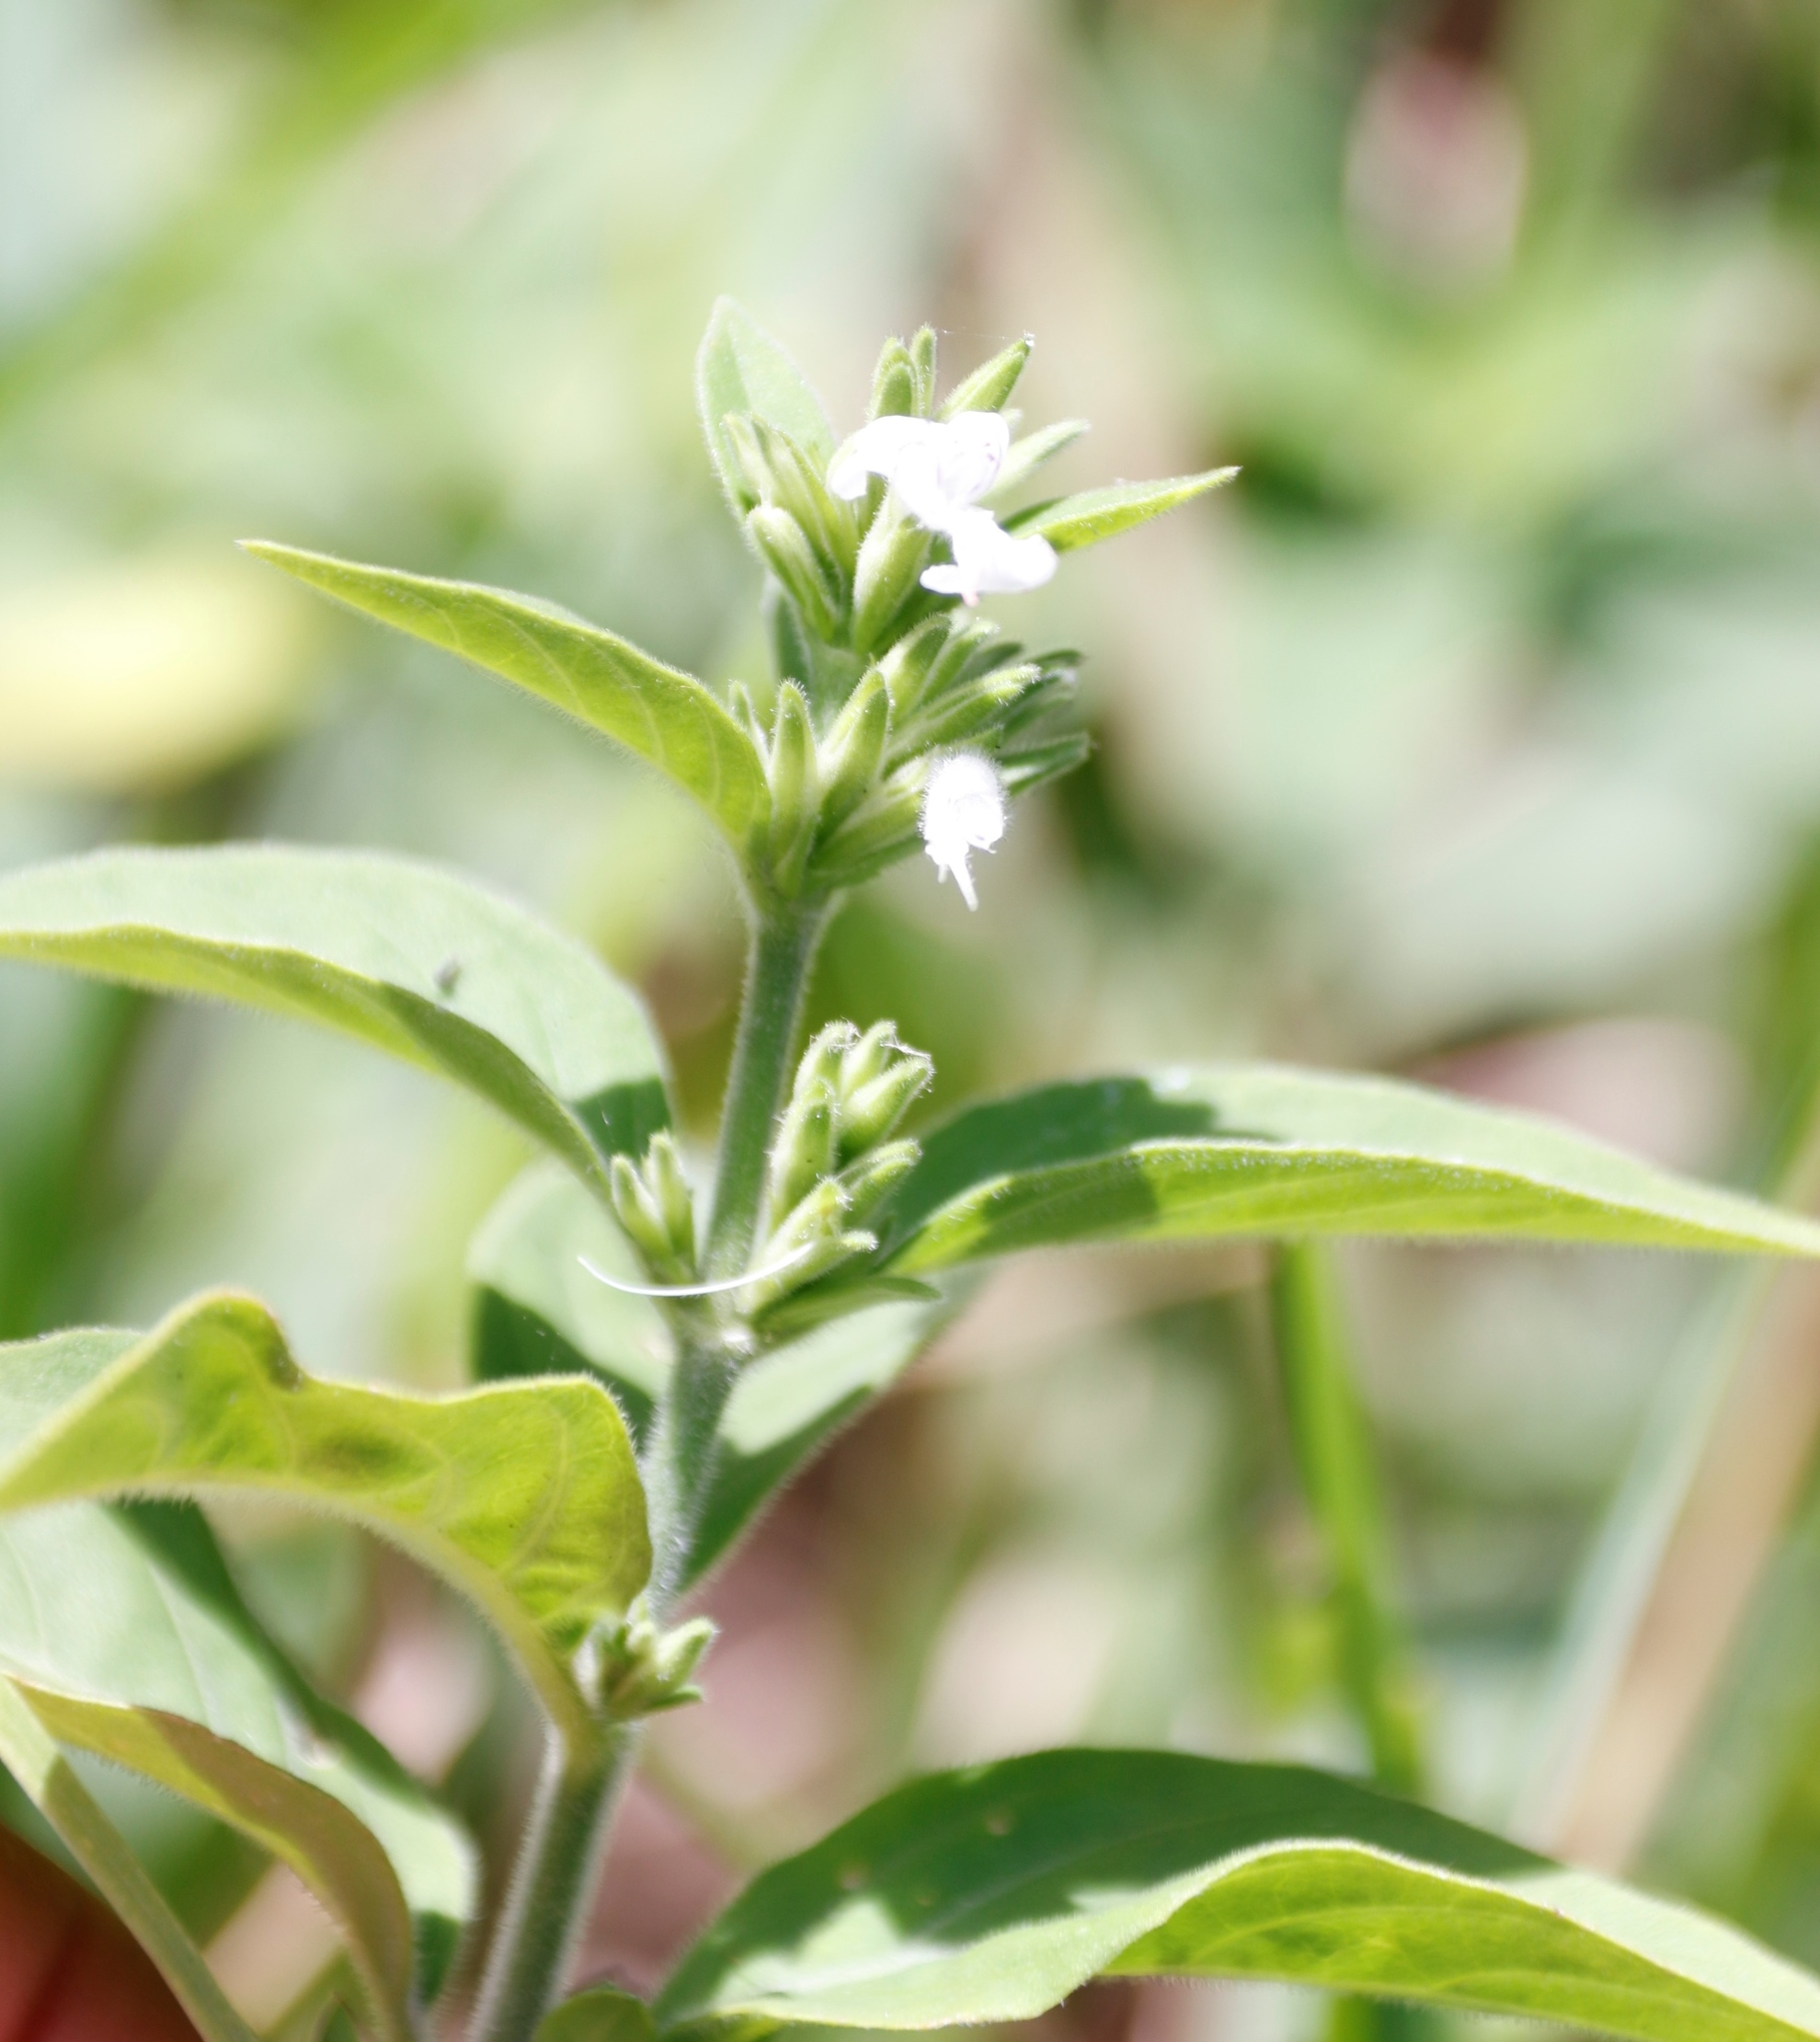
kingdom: Plantae
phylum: Tracheophyta
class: Magnoliopsida
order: Lamiales
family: Acanthaceae
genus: Hypoestes
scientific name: Hypoestes forskaolii
